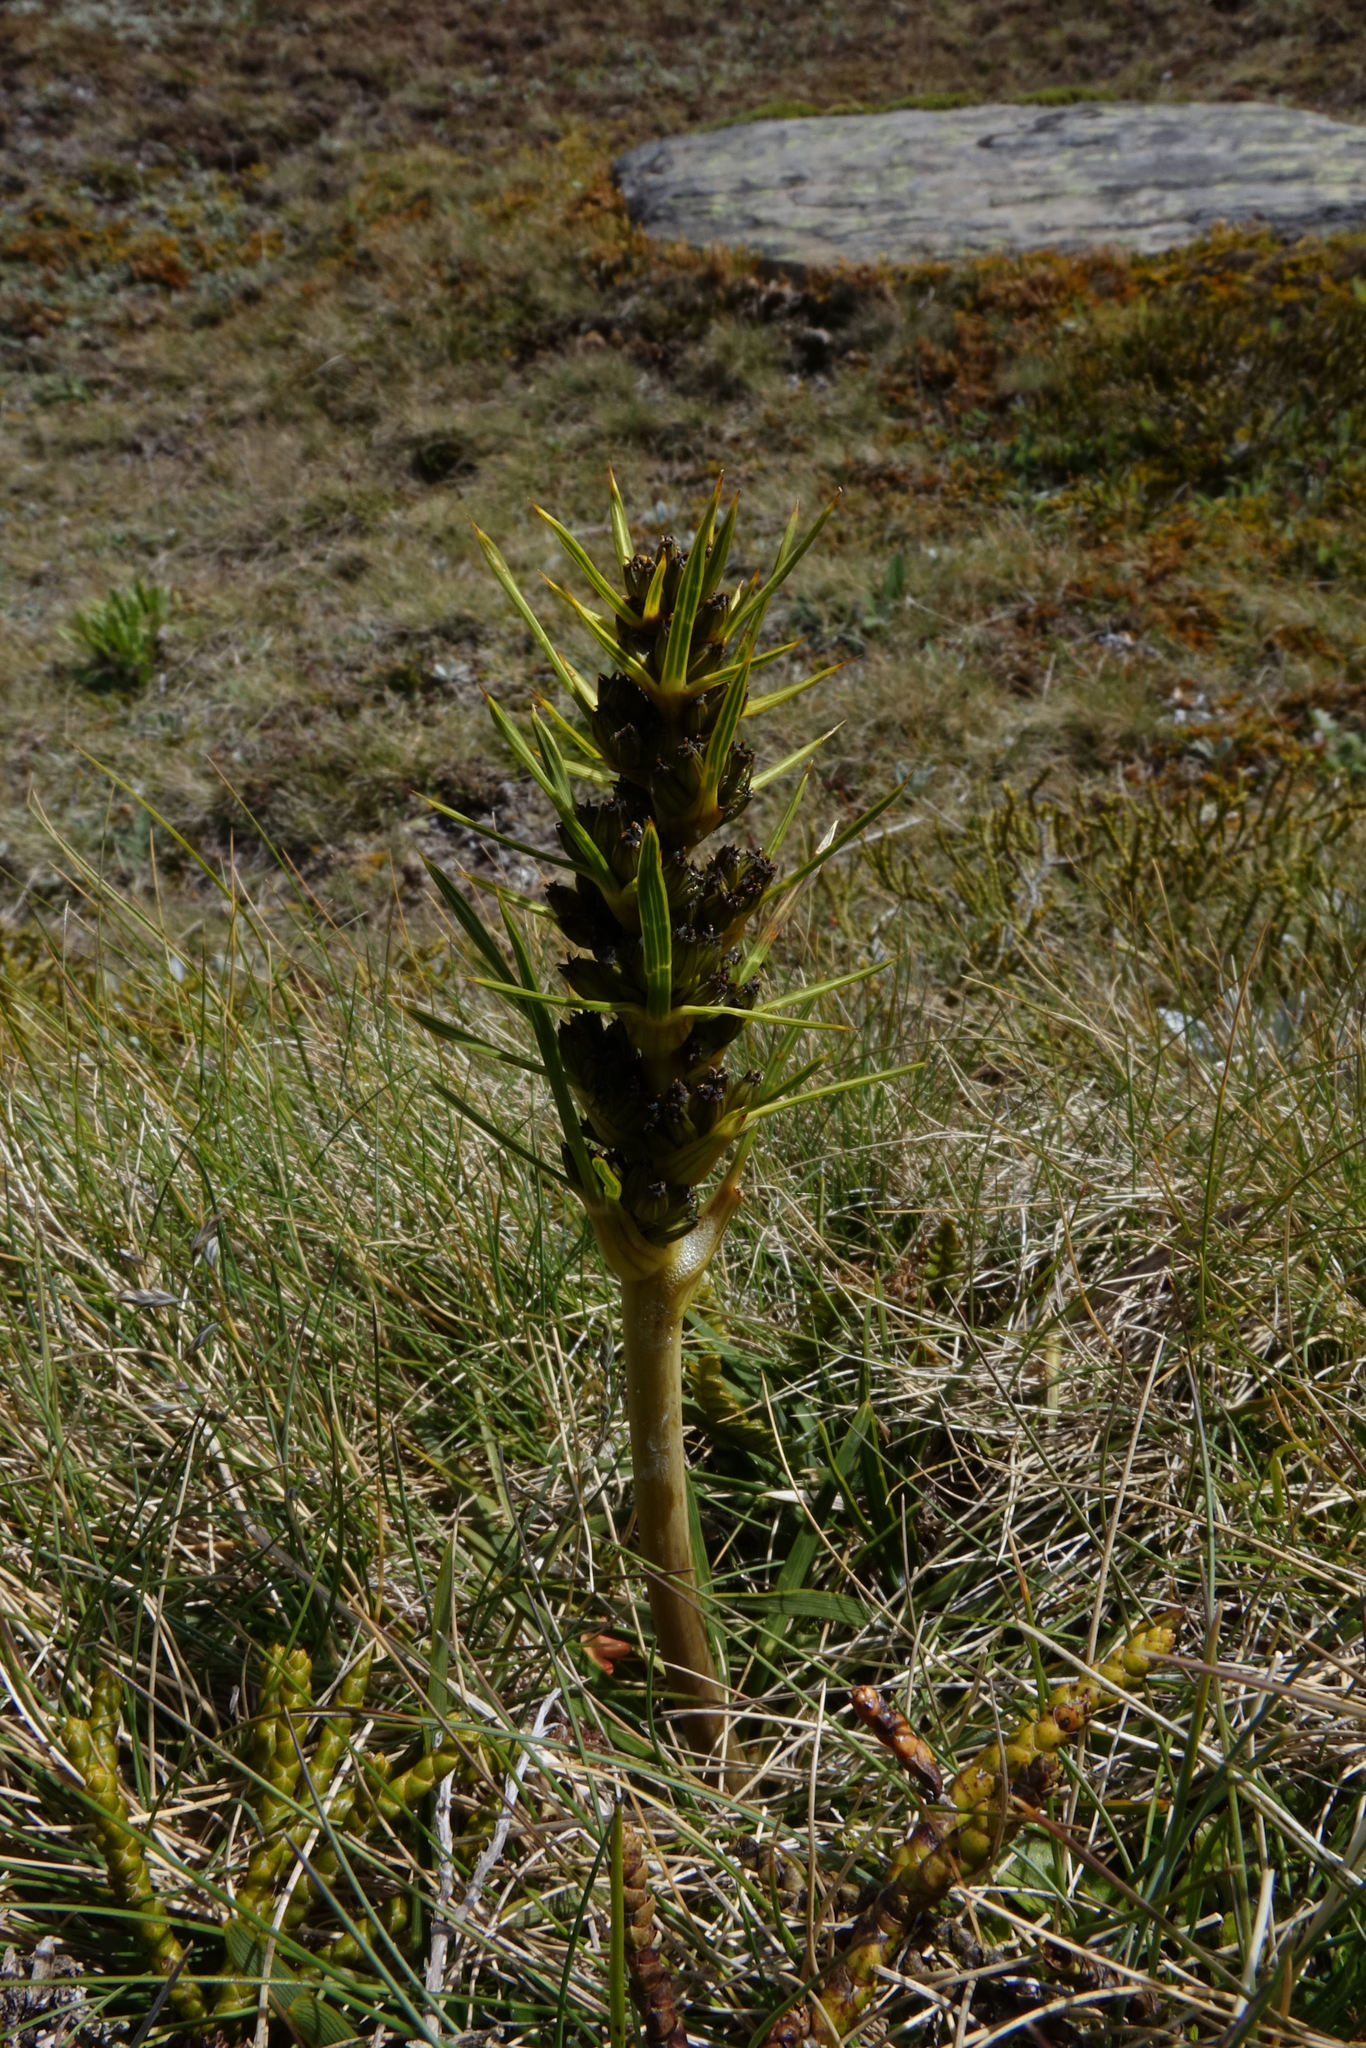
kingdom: Plantae
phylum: Tracheophyta
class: Magnoliopsida
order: Apiales
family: Apiaceae
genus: Aciphylla
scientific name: Aciphylla verticillata
